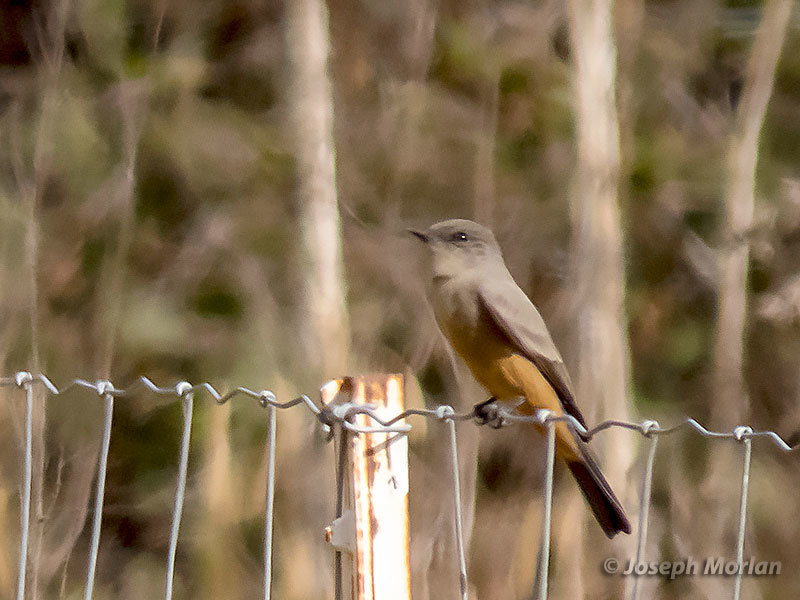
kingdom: Animalia
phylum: Chordata
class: Aves
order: Passeriformes
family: Tyrannidae
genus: Sayornis
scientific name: Sayornis saya
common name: Say's phoebe
